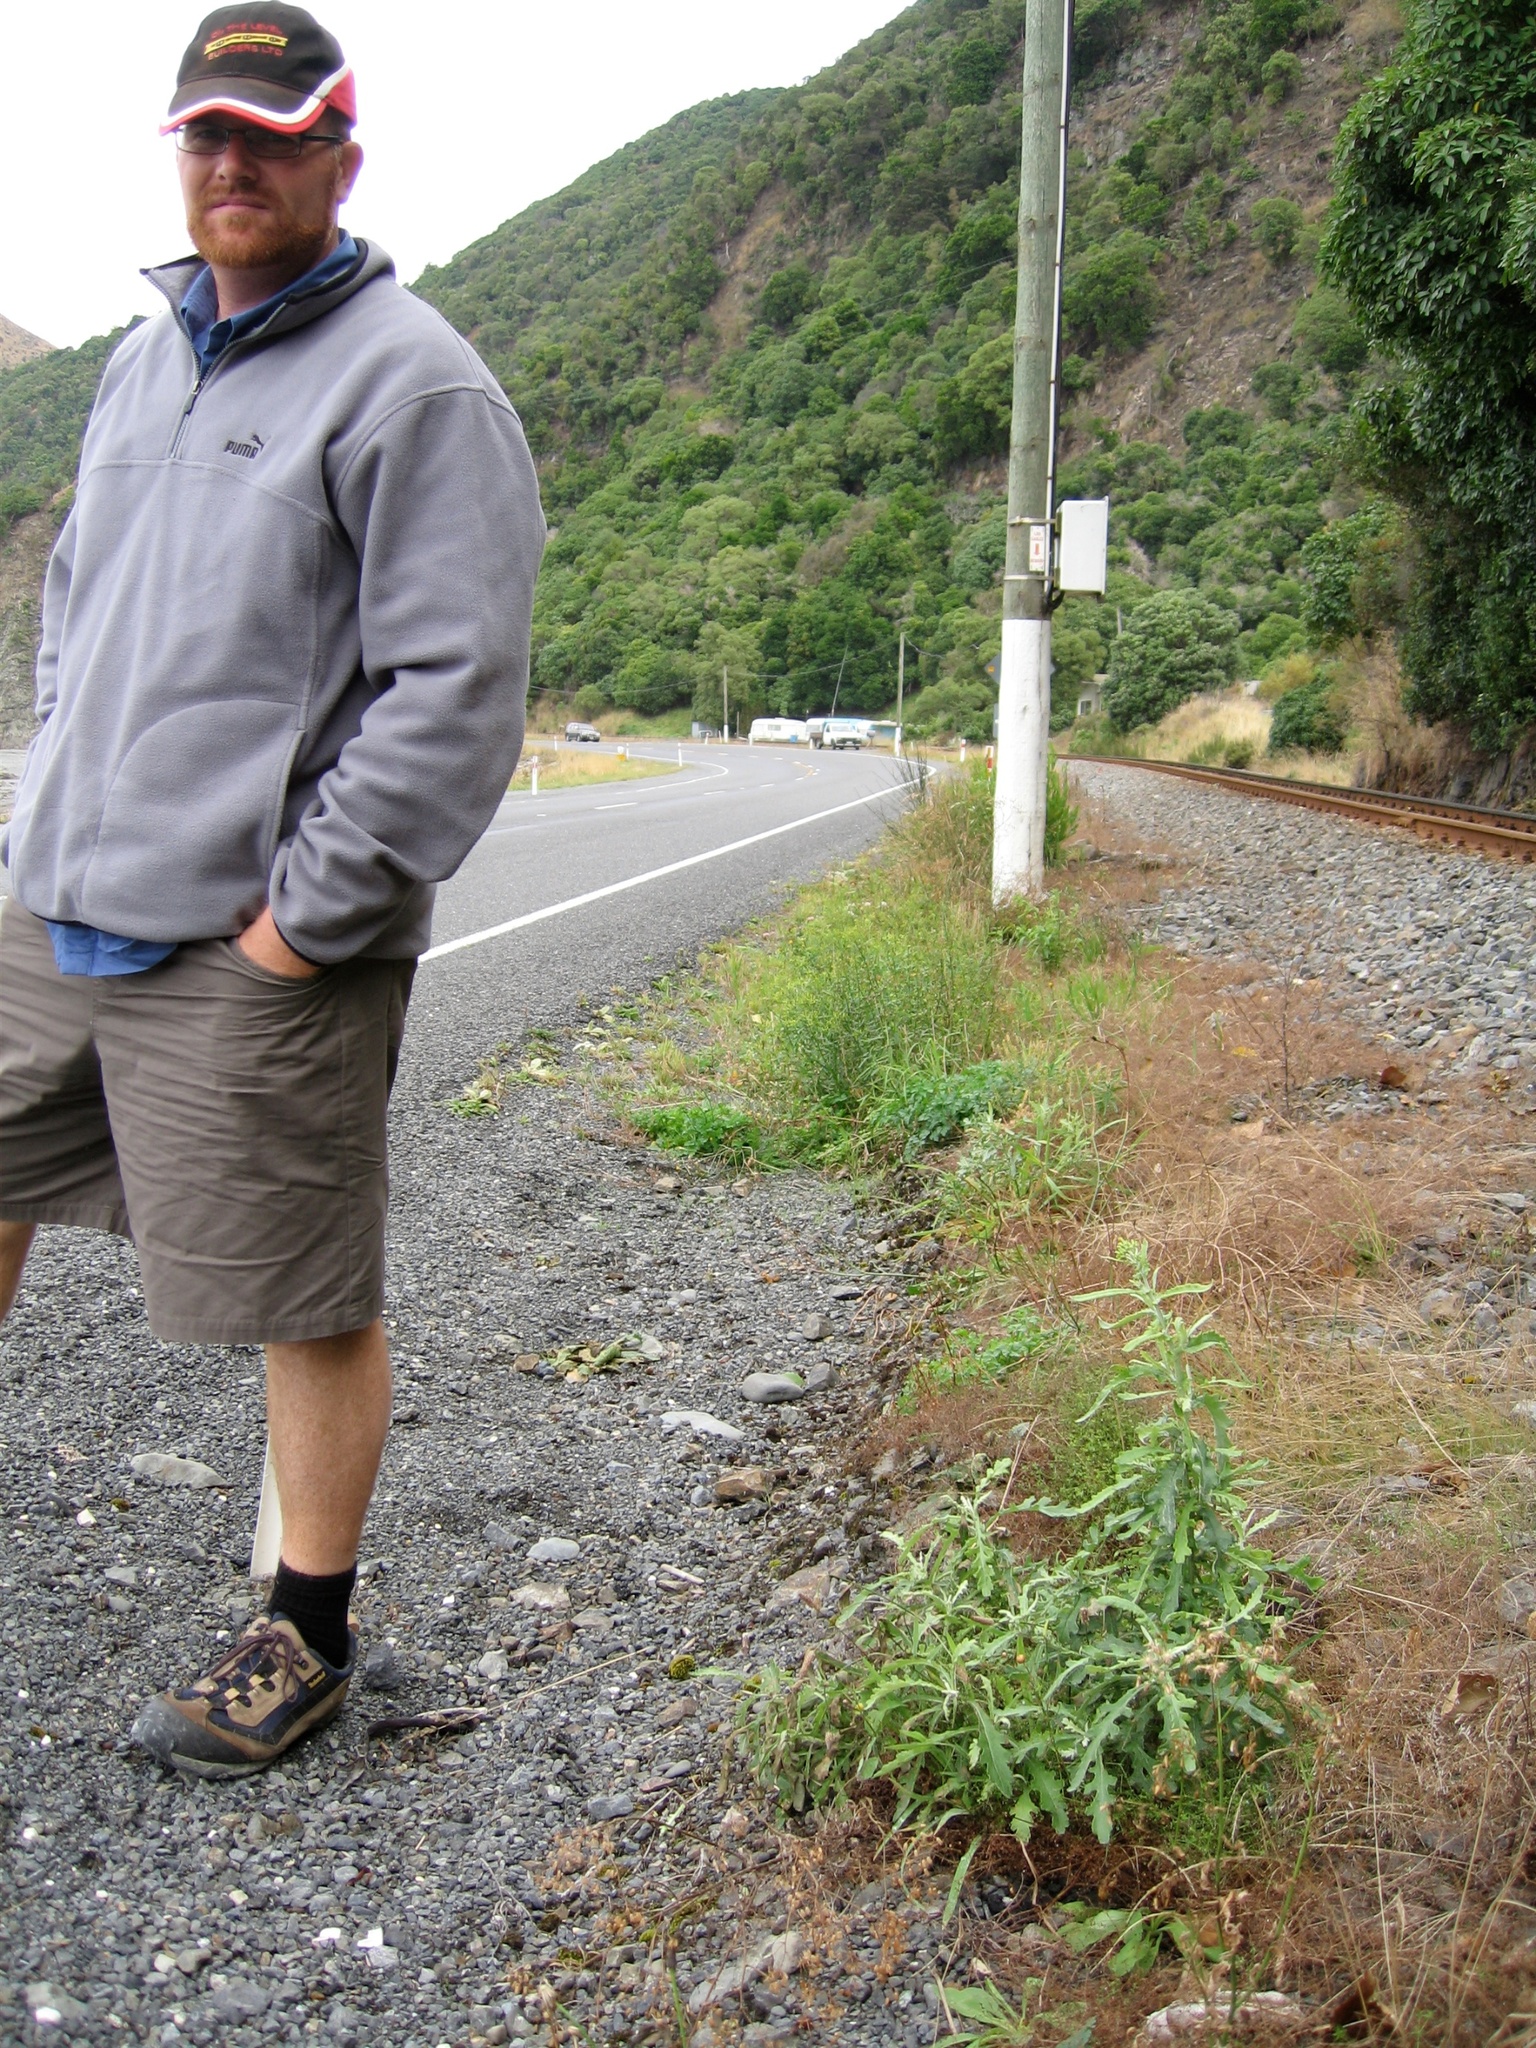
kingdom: Plantae
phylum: Tracheophyta
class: Magnoliopsida
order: Asterales
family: Asteraceae
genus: Senecio
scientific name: Senecio glomeratus
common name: Cutleaf burnweed
